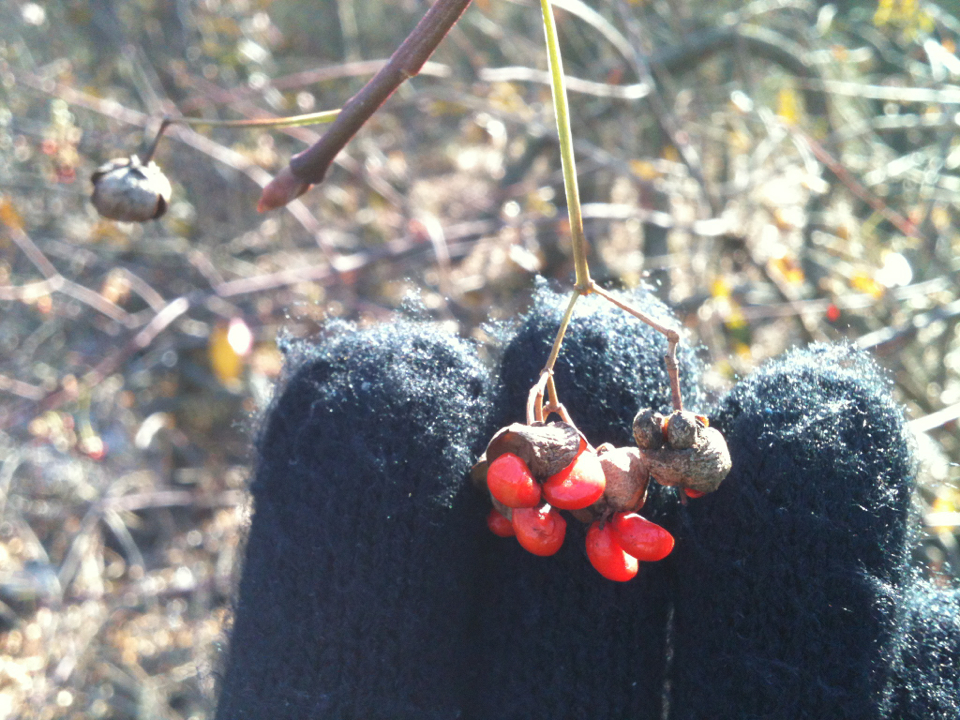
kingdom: Plantae
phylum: Tracheophyta
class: Magnoliopsida
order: Celastrales
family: Celastraceae
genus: Euonymus
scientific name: Euonymus fortunei
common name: Climbing euonymus
